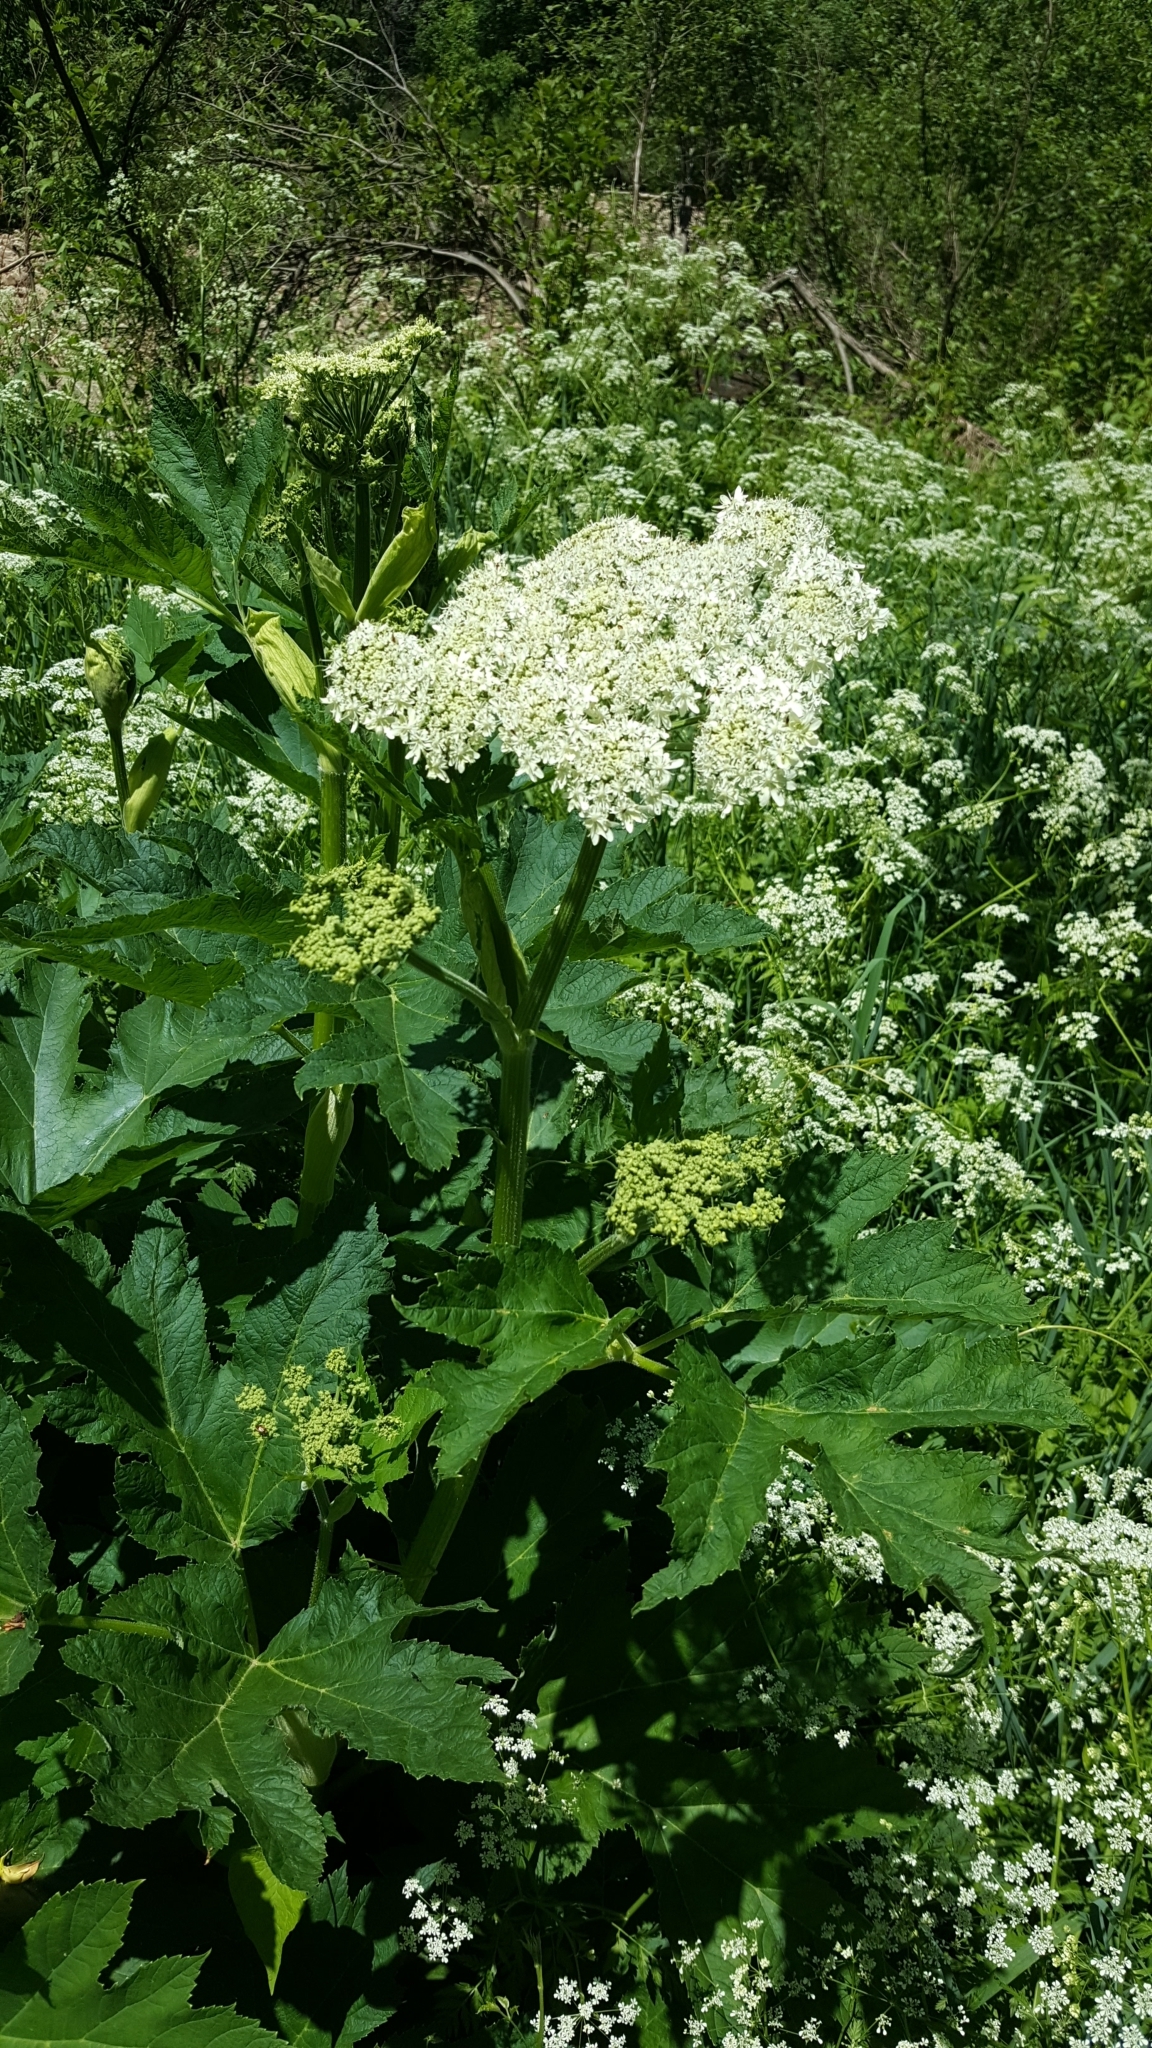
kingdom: Plantae
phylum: Tracheophyta
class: Magnoliopsida
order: Apiales
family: Apiaceae
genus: Heracleum
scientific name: Heracleum maximum
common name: American cow parsnip
